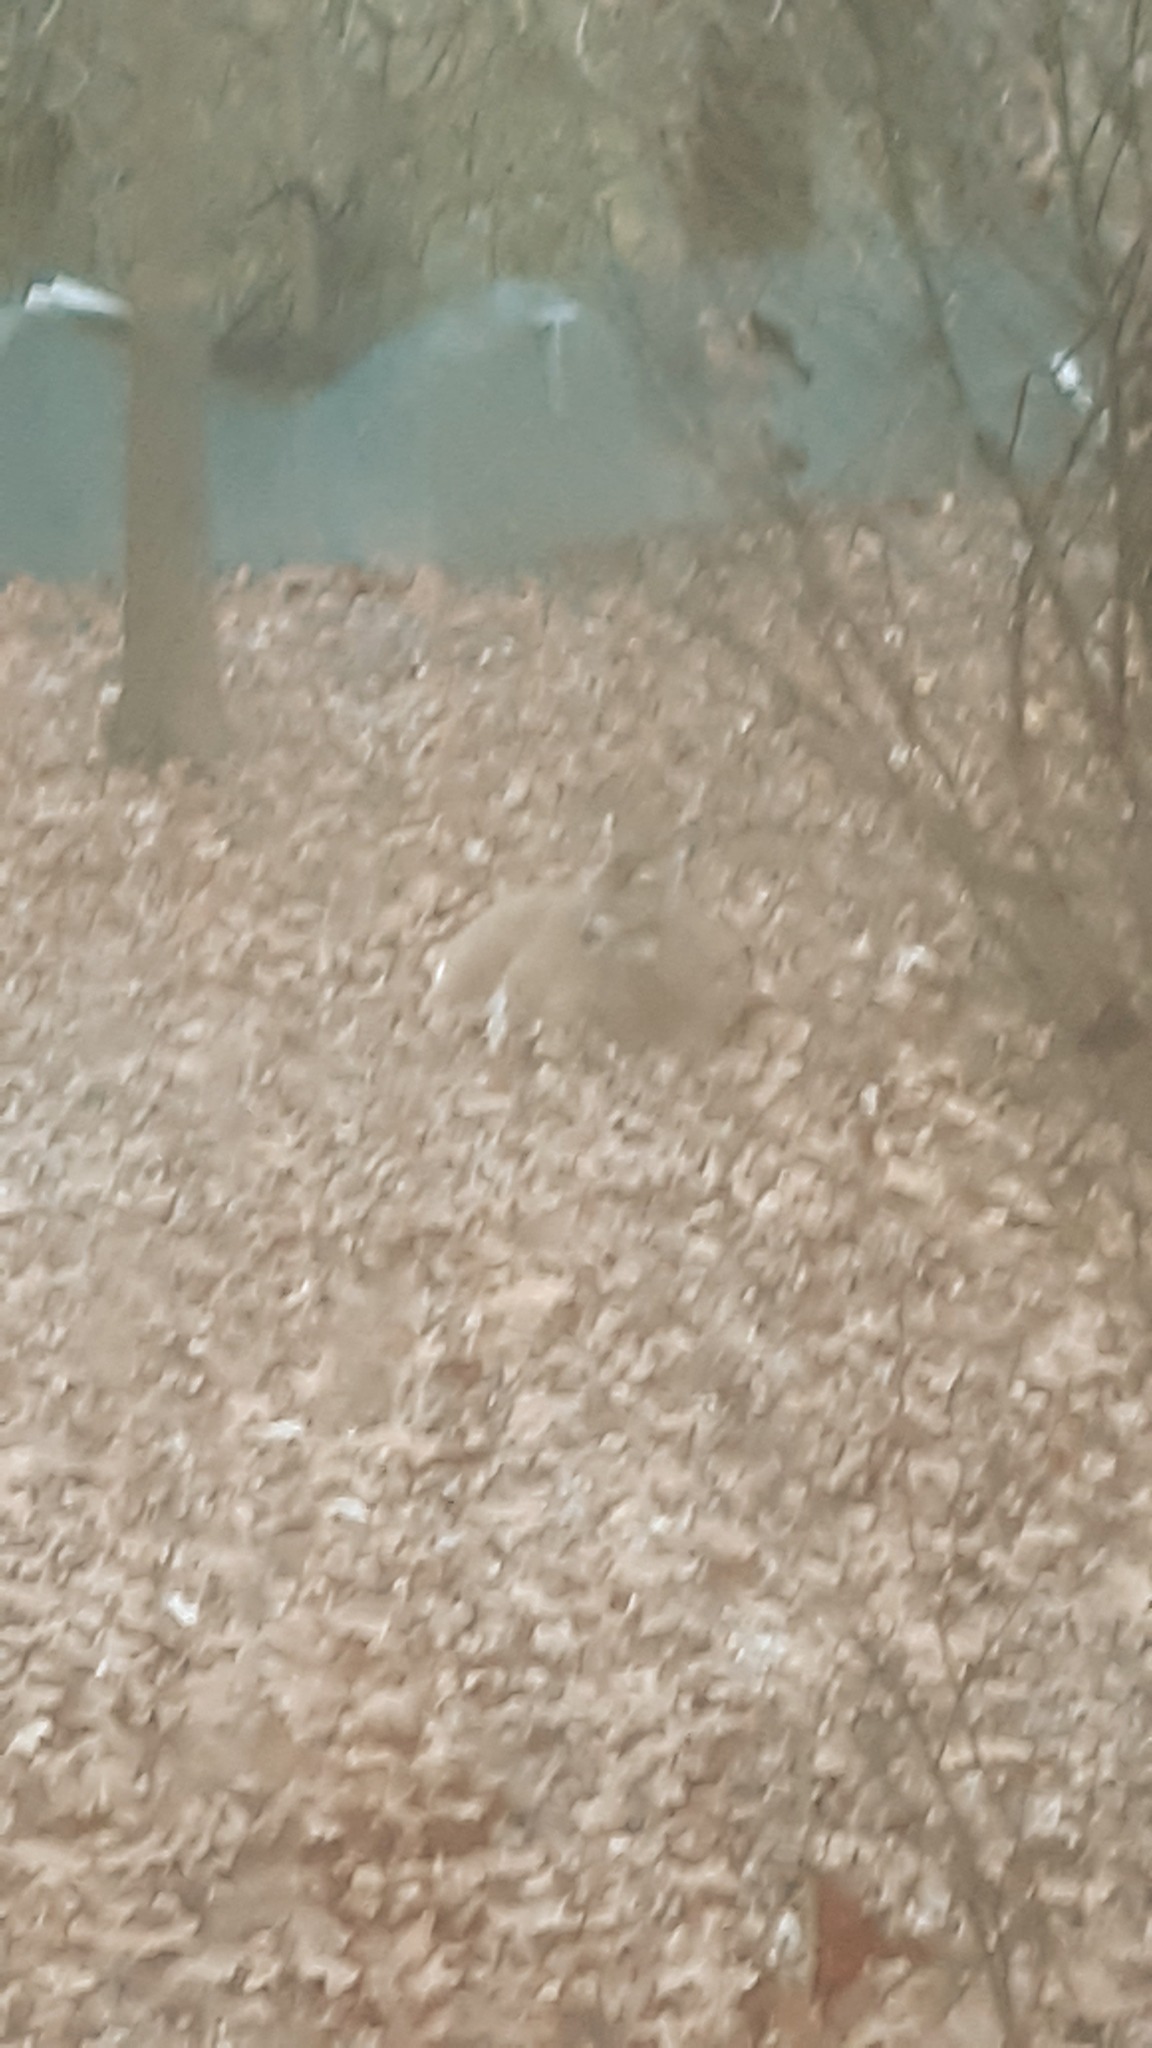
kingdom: Animalia
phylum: Chordata
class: Mammalia
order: Artiodactyla
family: Cervidae
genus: Odocoileus
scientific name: Odocoileus virginianus
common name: White-tailed deer
